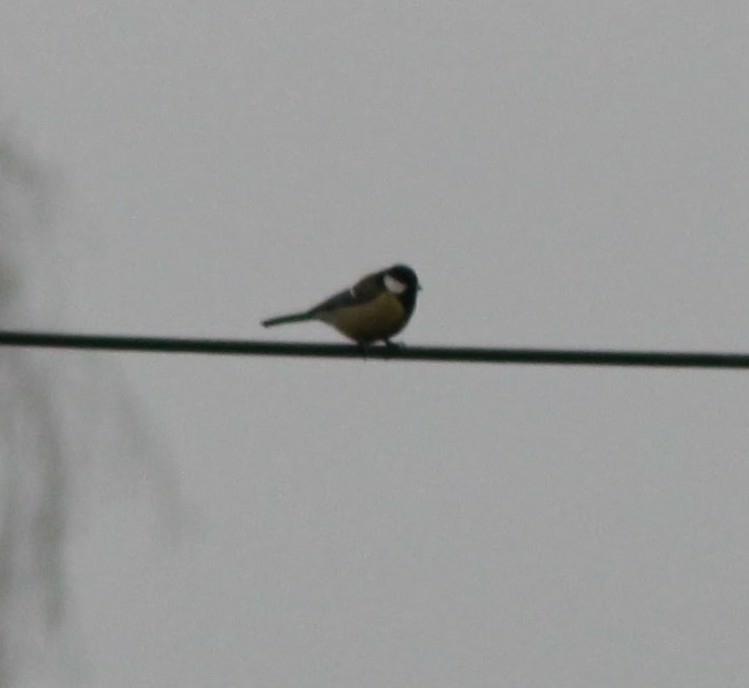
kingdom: Animalia
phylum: Chordata
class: Aves
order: Passeriformes
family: Paridae
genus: Parus
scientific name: Parus major
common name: Great tit
